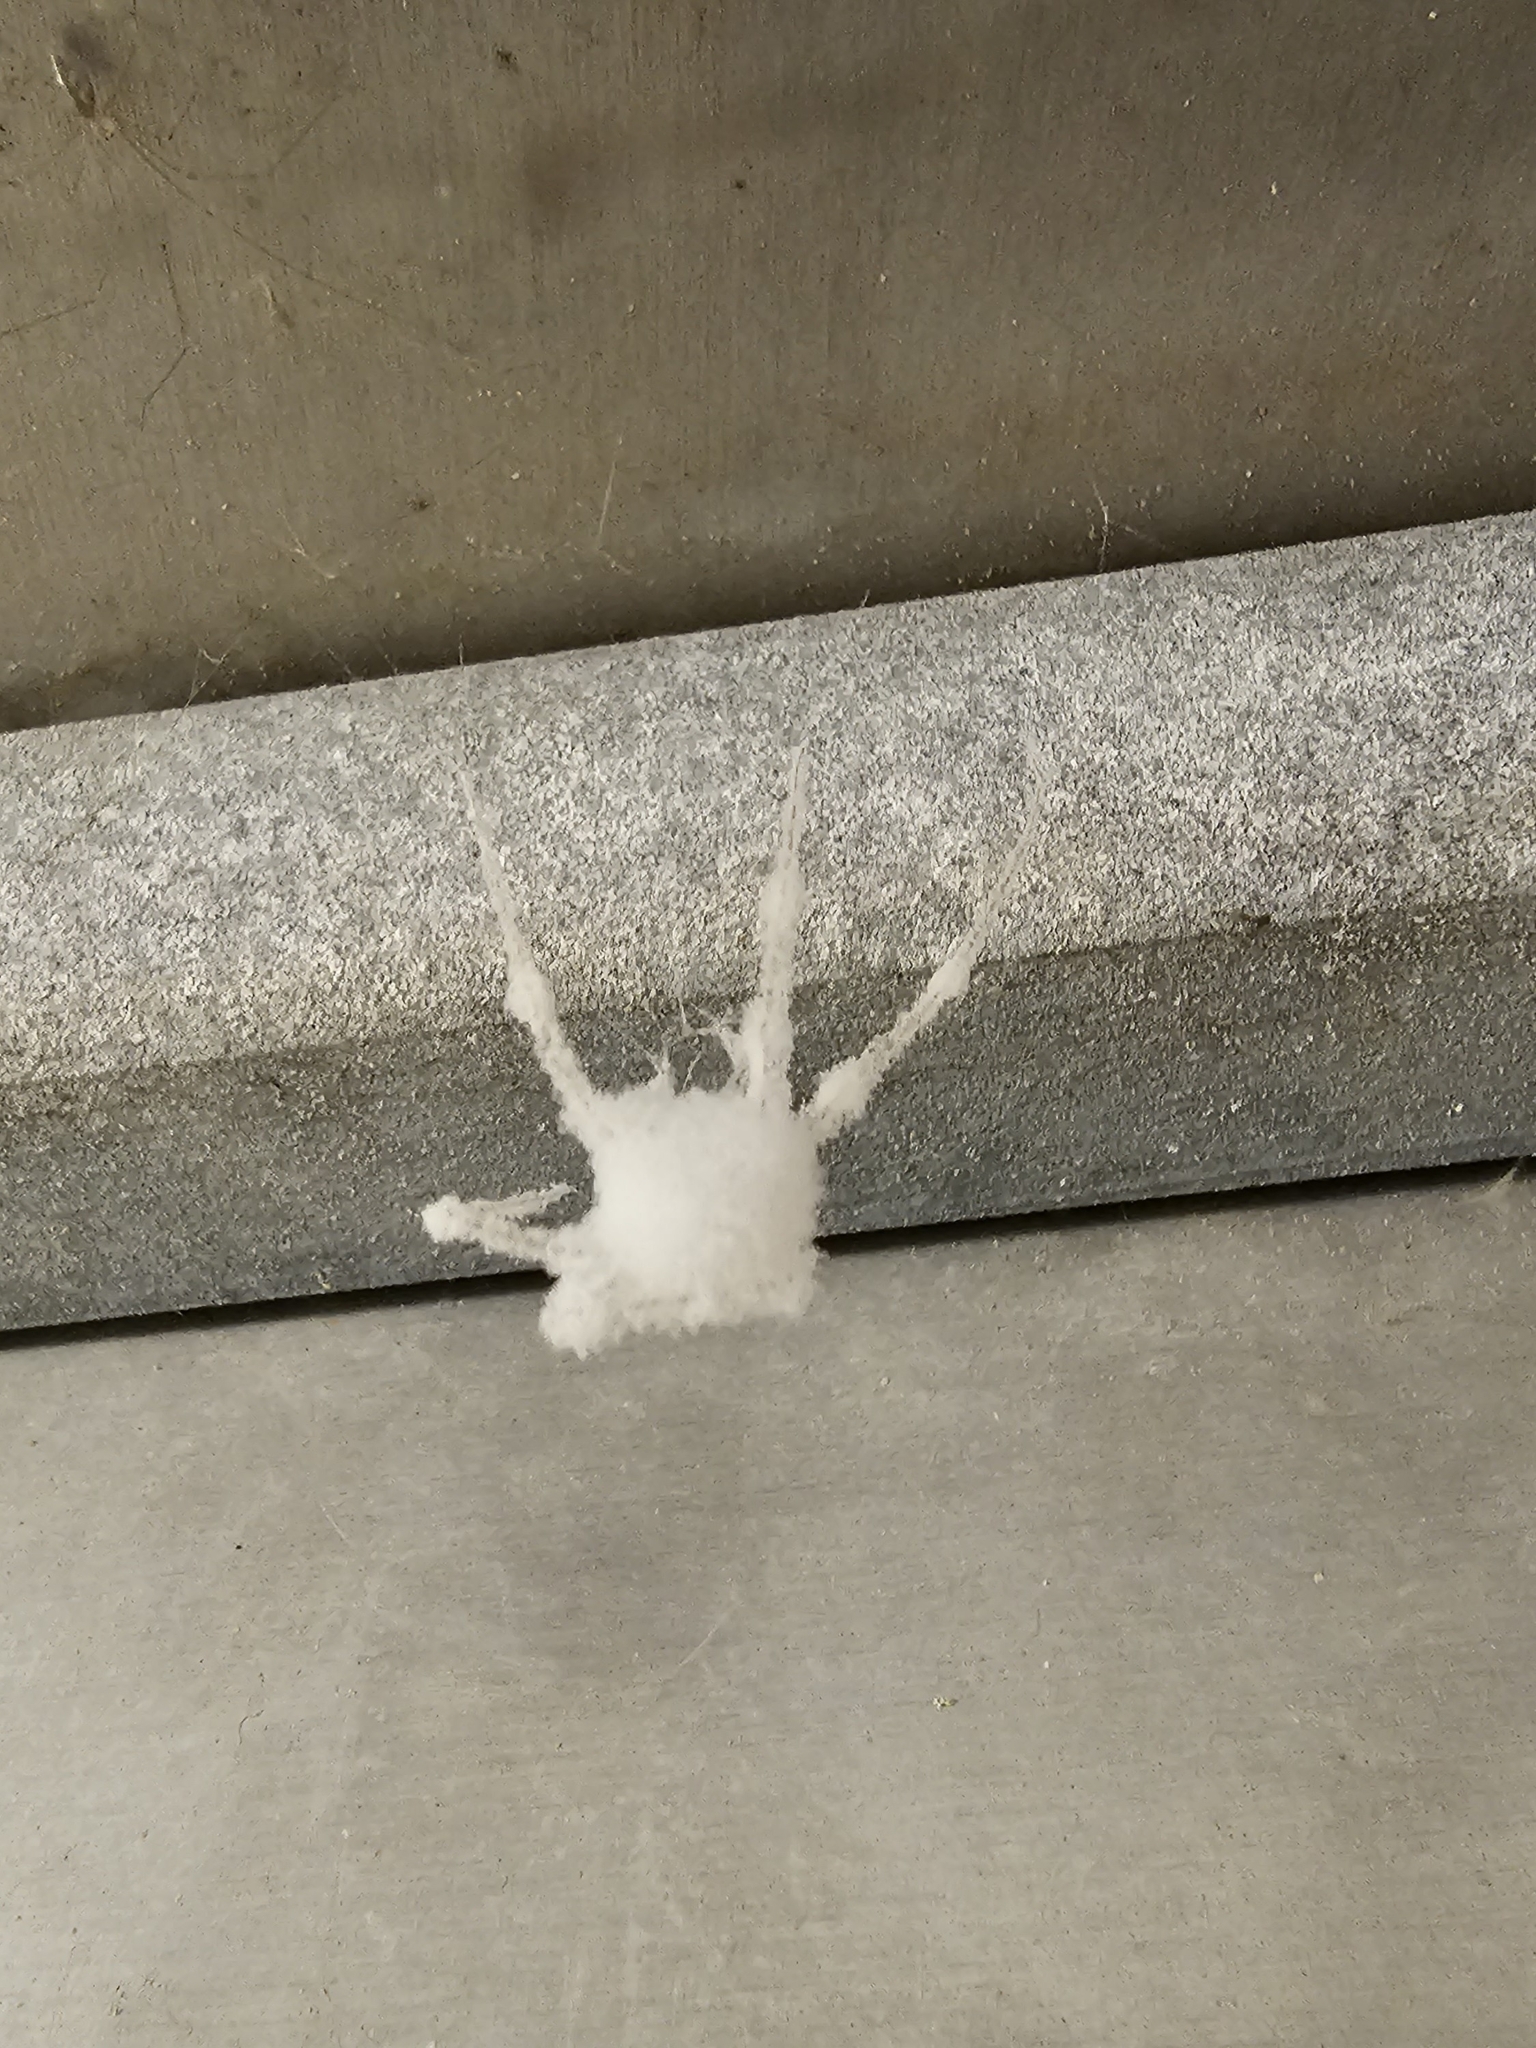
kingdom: Fungi
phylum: Ascomycota
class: Sordariomycetes
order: Hypocreales
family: Cordycipitaceae
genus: Lecanicillium
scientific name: Lecanicillium tenuipes
